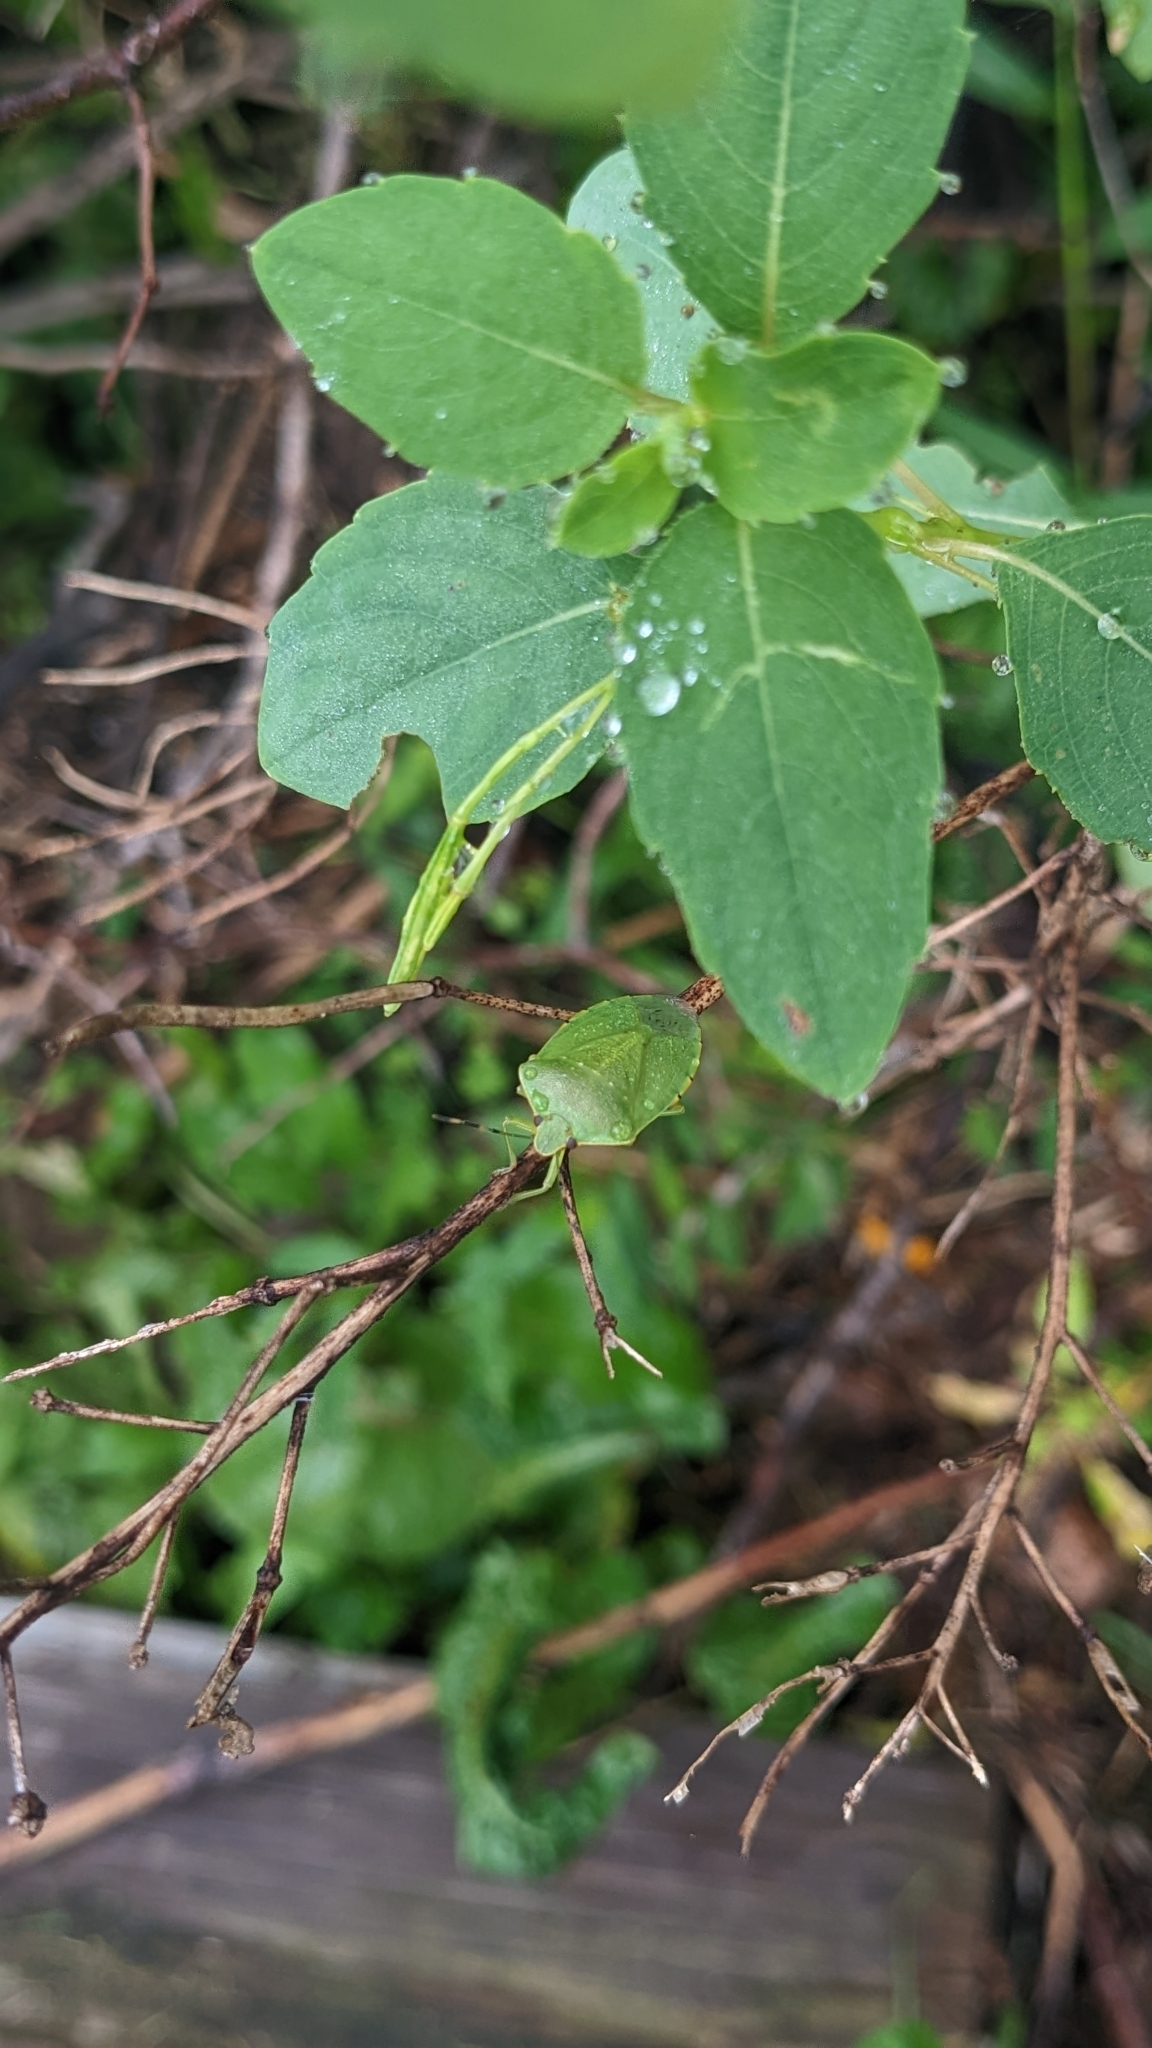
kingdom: Animalia
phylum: Arthropoda
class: Insecta
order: Hemiptera
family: Pentatomidae
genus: Chinavia
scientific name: Chinavia hilaris
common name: Green stink bug
